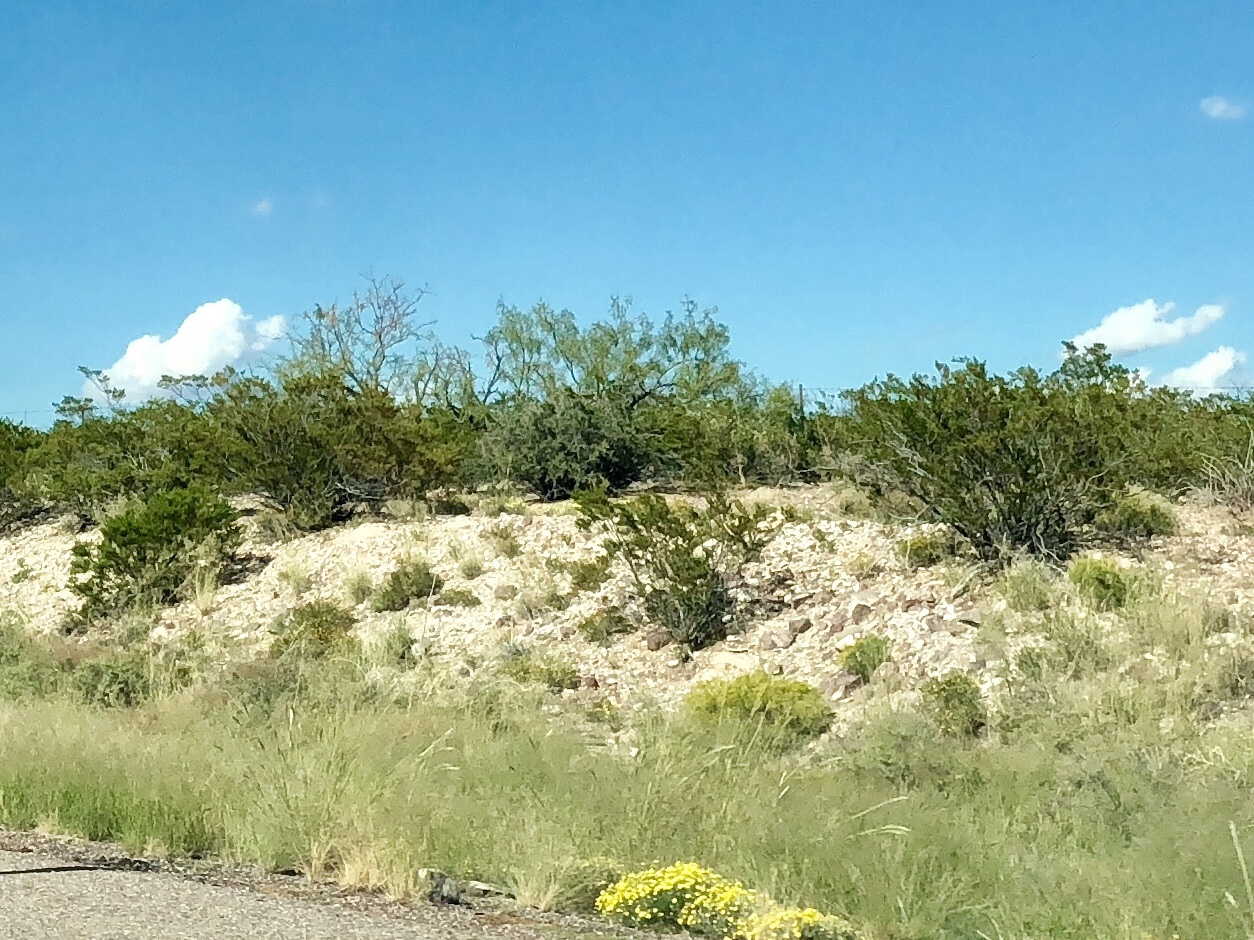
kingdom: Plantae
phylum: Tracheophyta
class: Magnoliopsida
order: Zygophyllales
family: Zygophyllaceae
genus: Larrea
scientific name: Larrea tridentata
